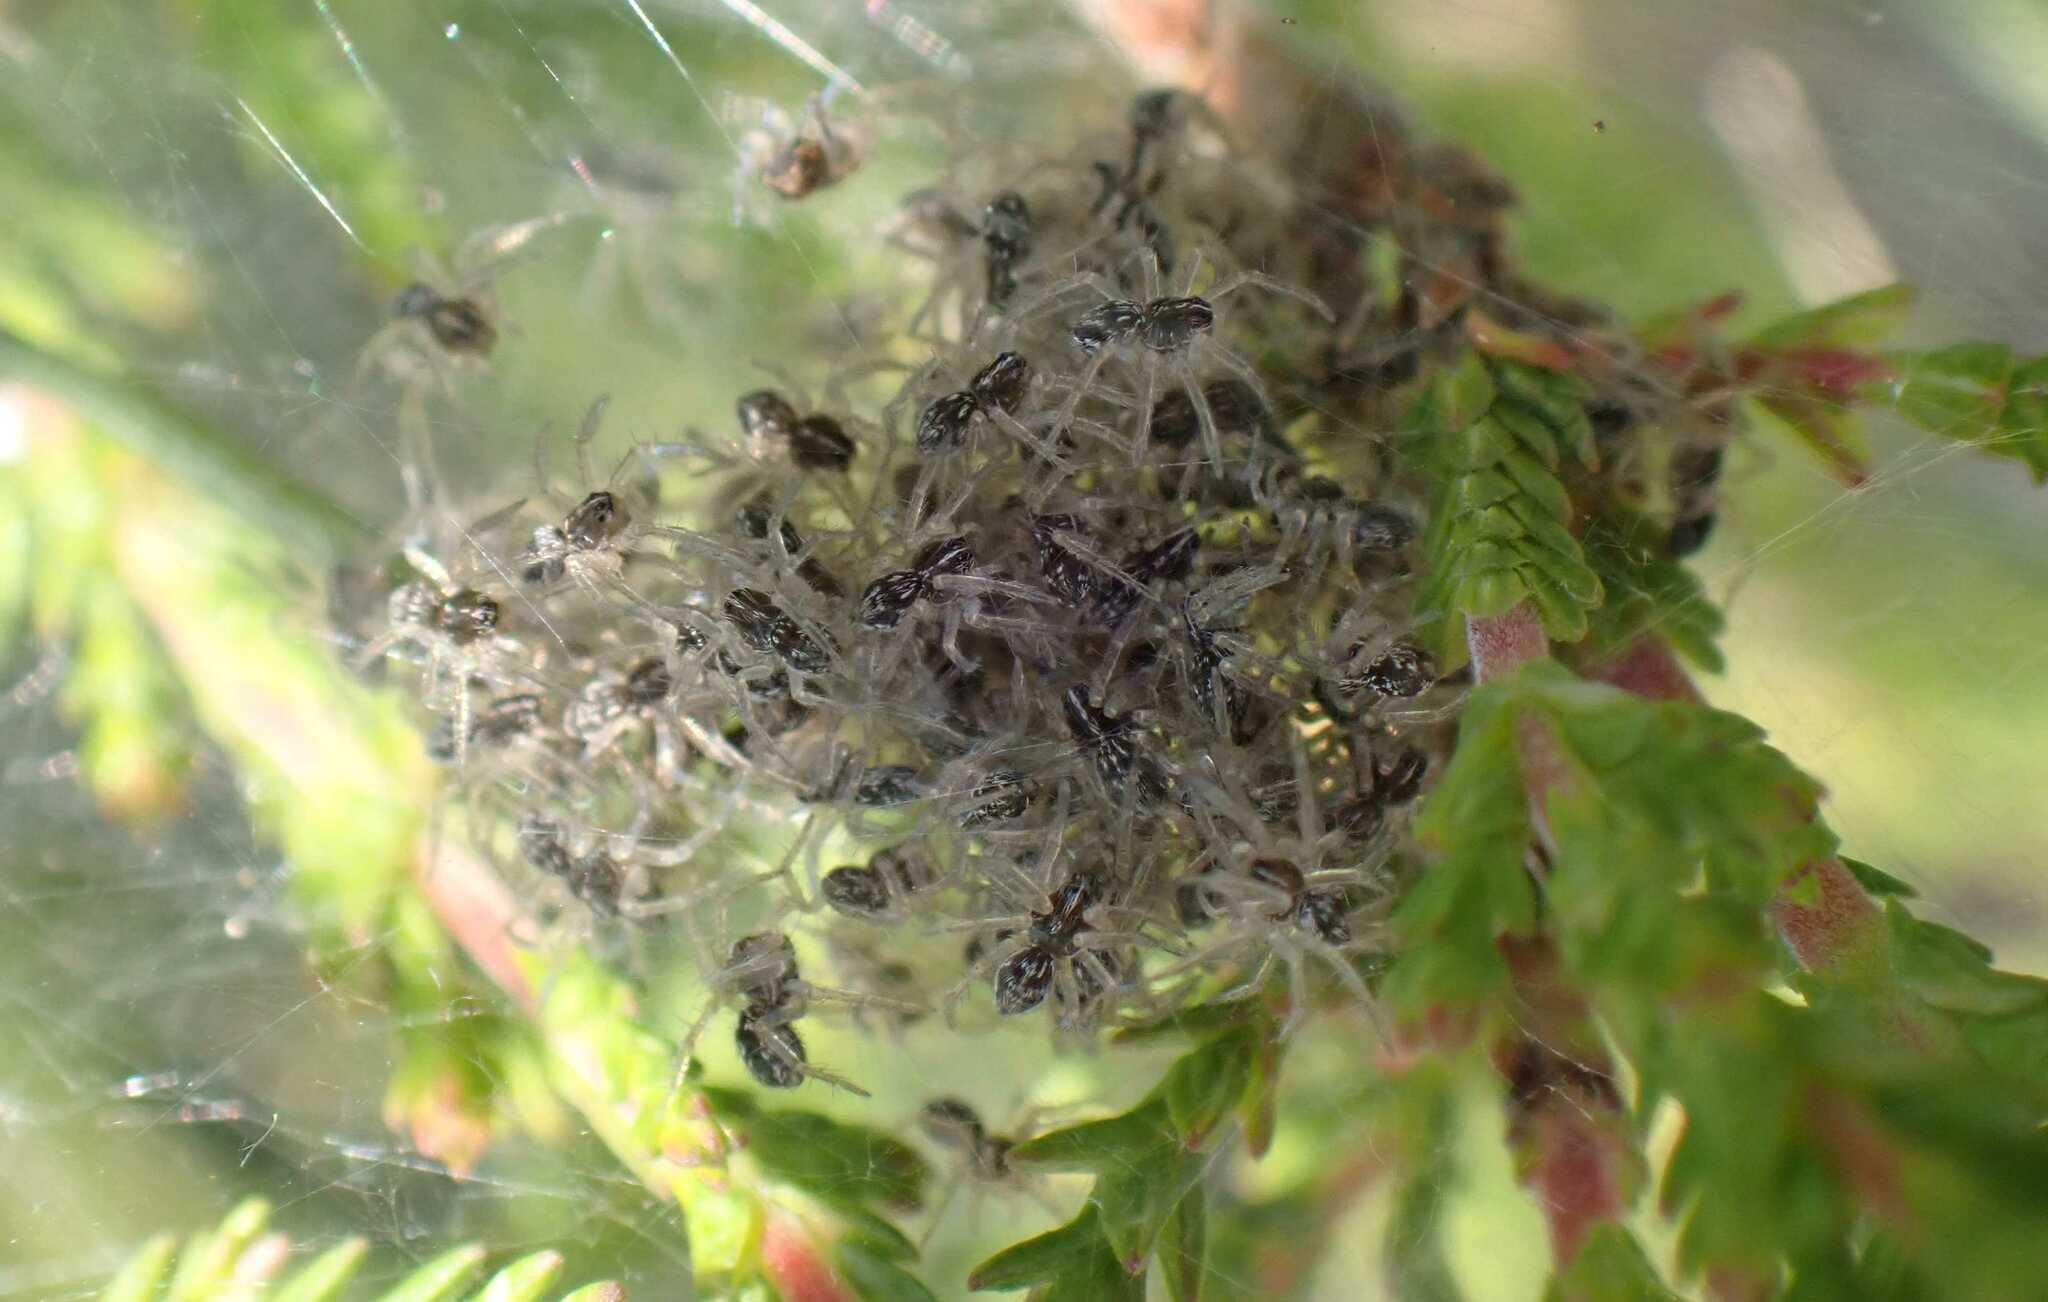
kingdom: Animalia
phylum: Arthropoda
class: Arachnida
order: Araneae
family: Pisauridae
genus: Pisaura
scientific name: Pisaura mirabilis
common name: Tent spider
